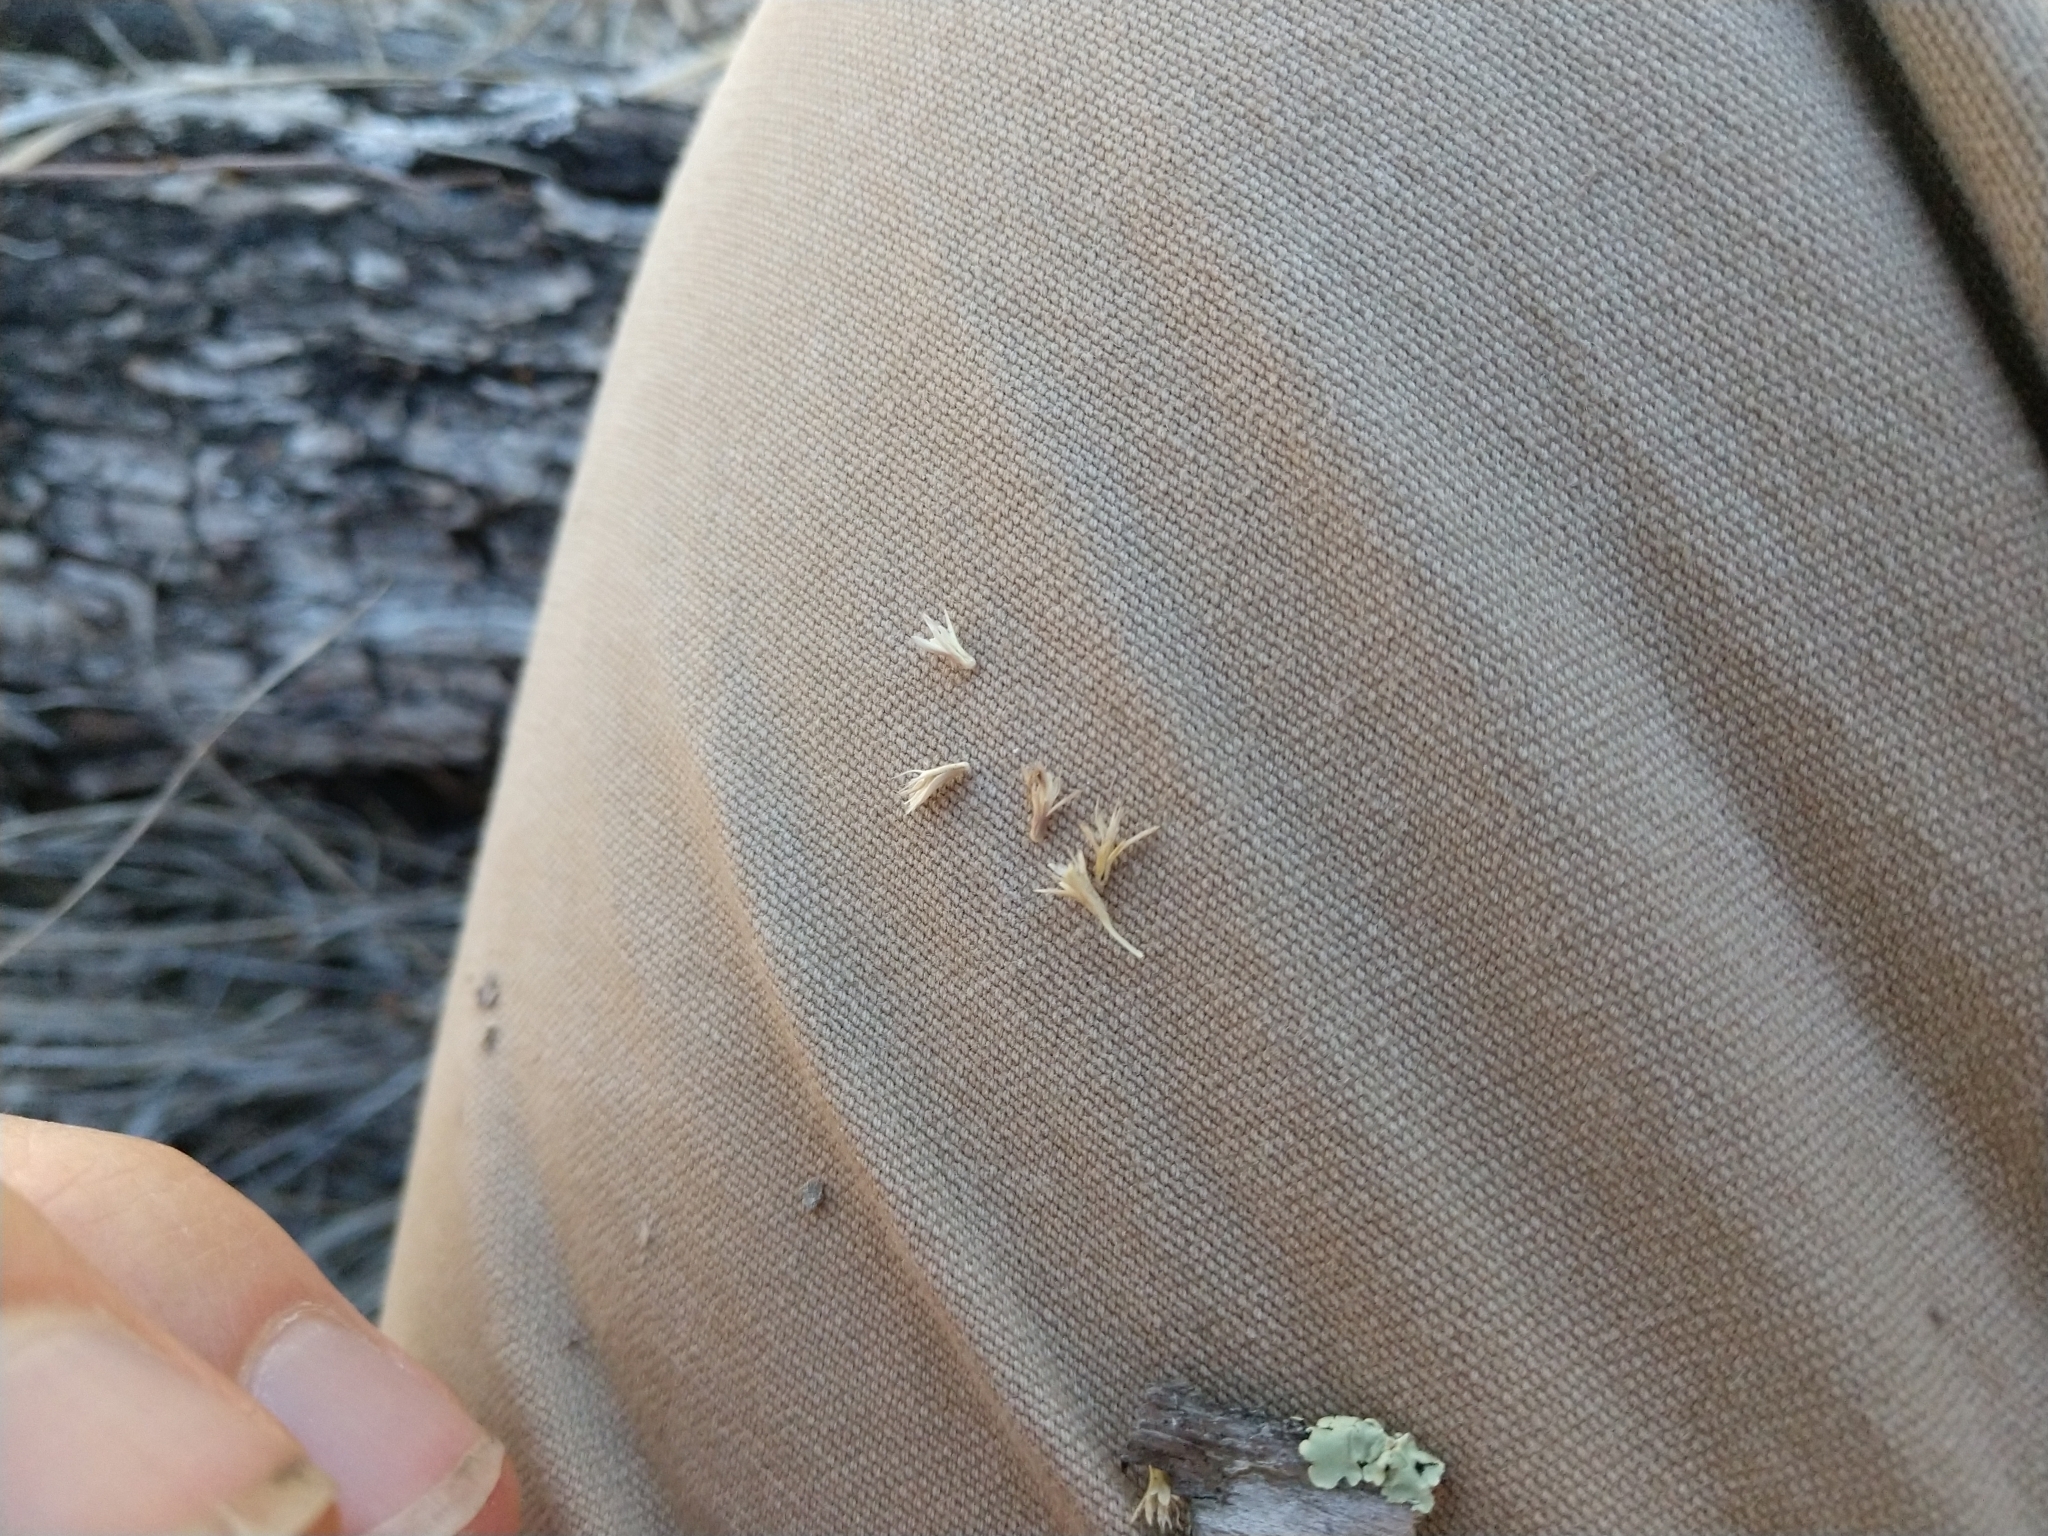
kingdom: Plantae
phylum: Tracheophyta
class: Liliopsida
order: Poales
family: Poaceae
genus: Hilaria
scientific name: Hilaria belangeri
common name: Curly-mesquite
